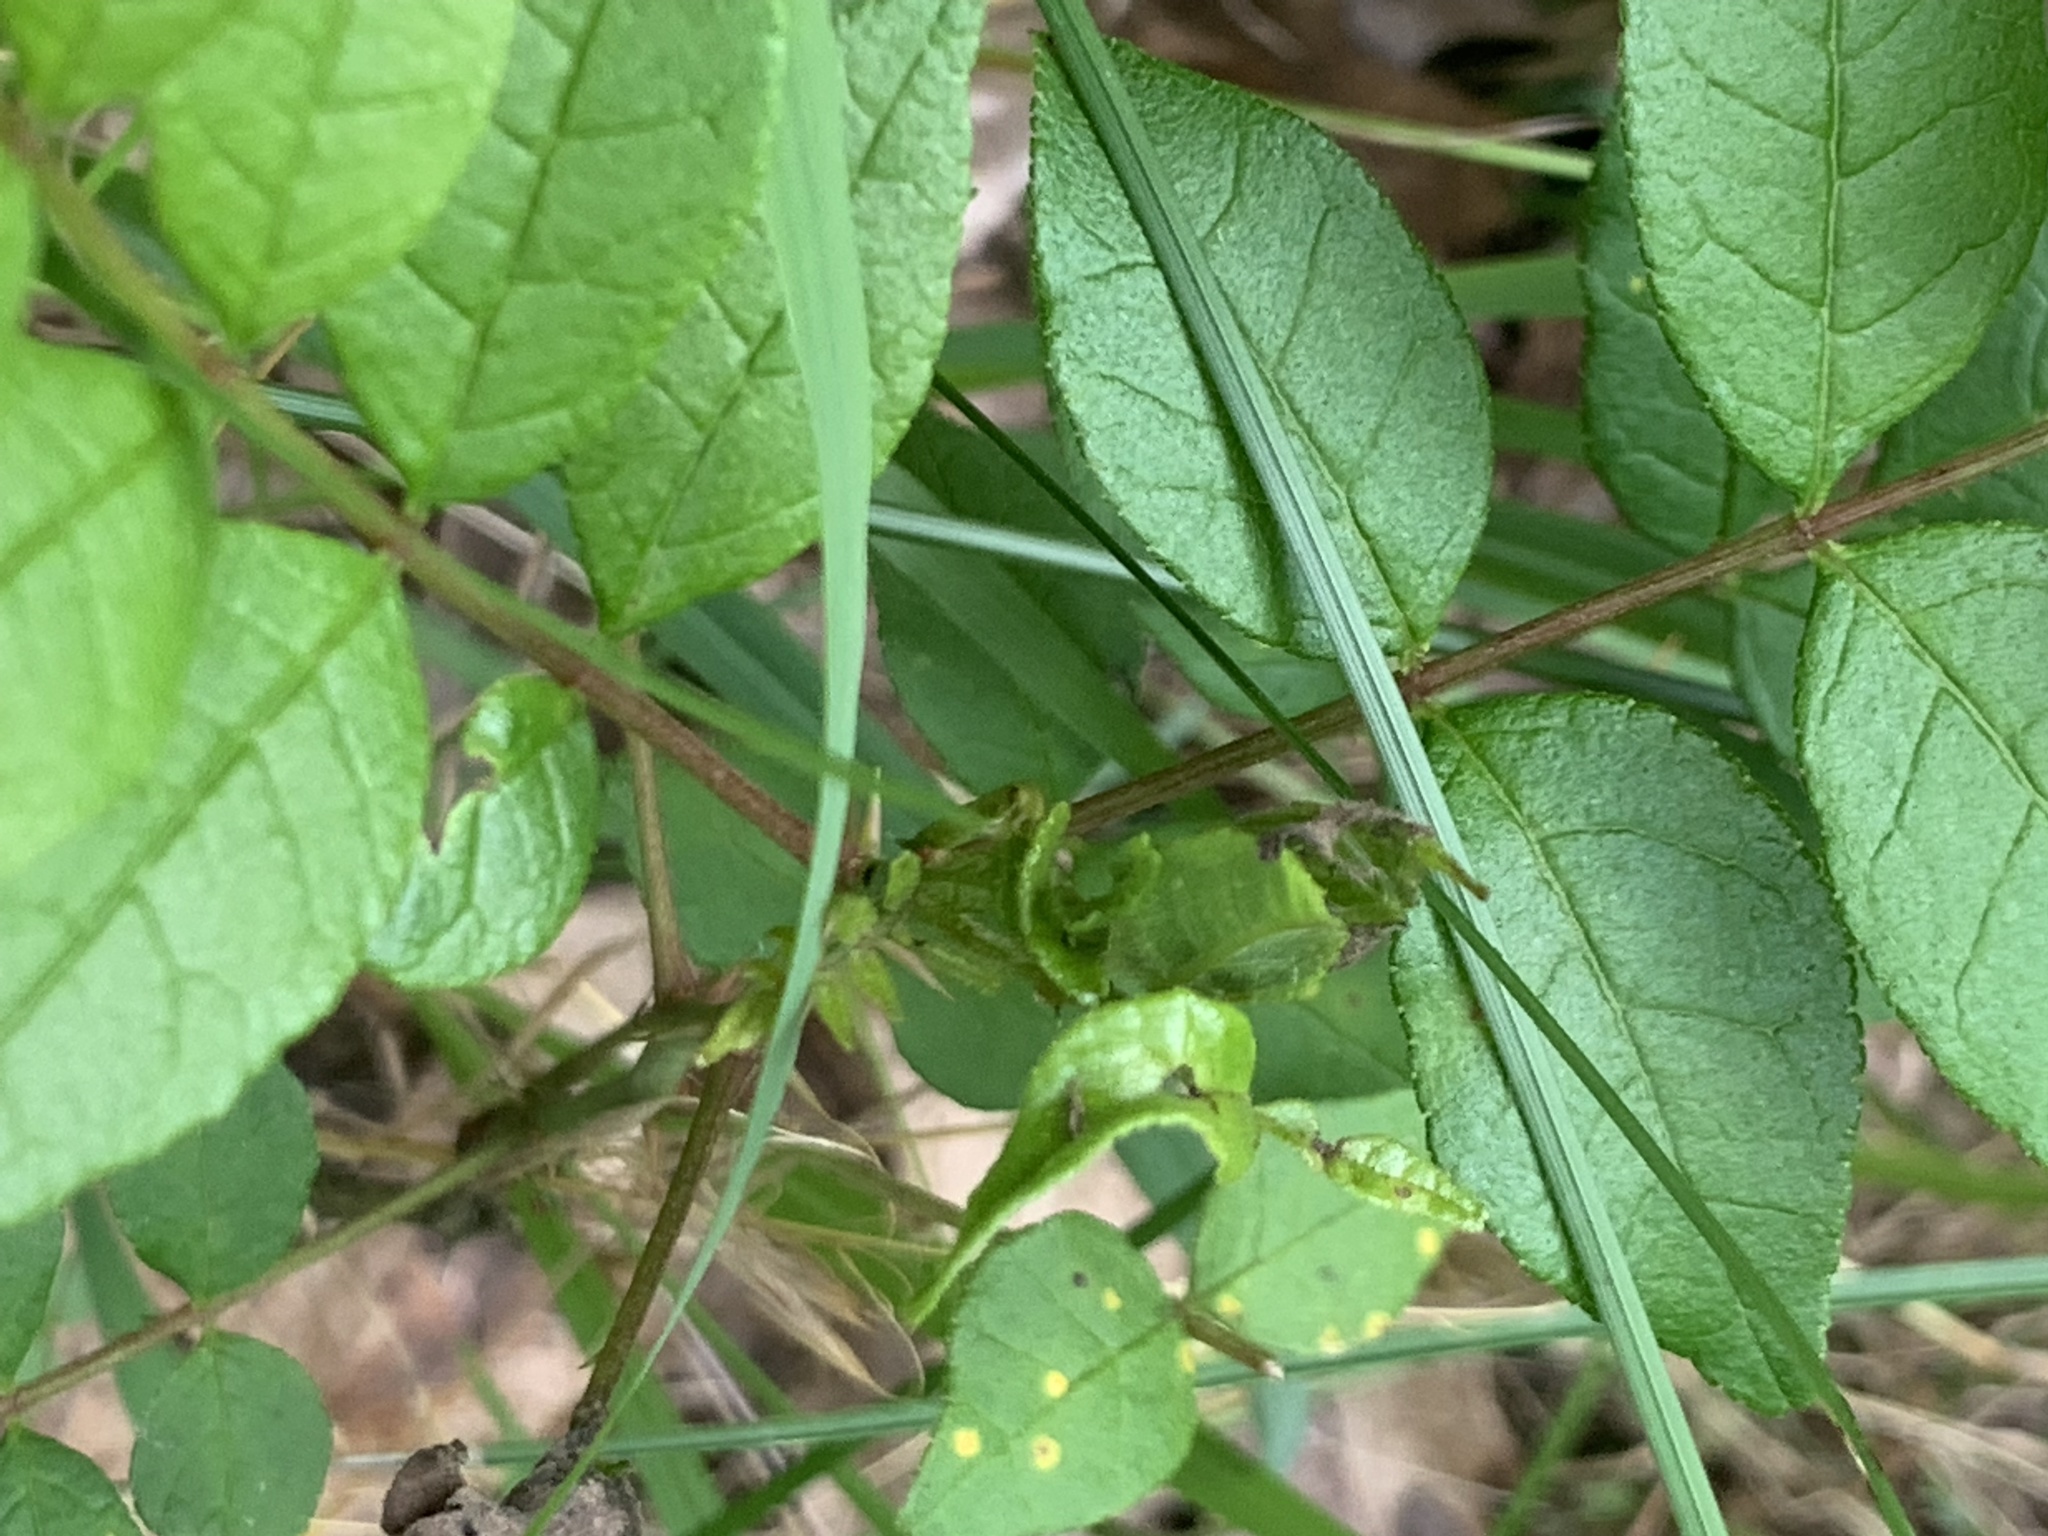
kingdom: Plantae
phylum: Tracheophyta
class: Magnoliopsida
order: Sapindales
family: Rutaceae
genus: Zanthoxylum
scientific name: Zanthoxylum americanum
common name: Northern prickly-ash
